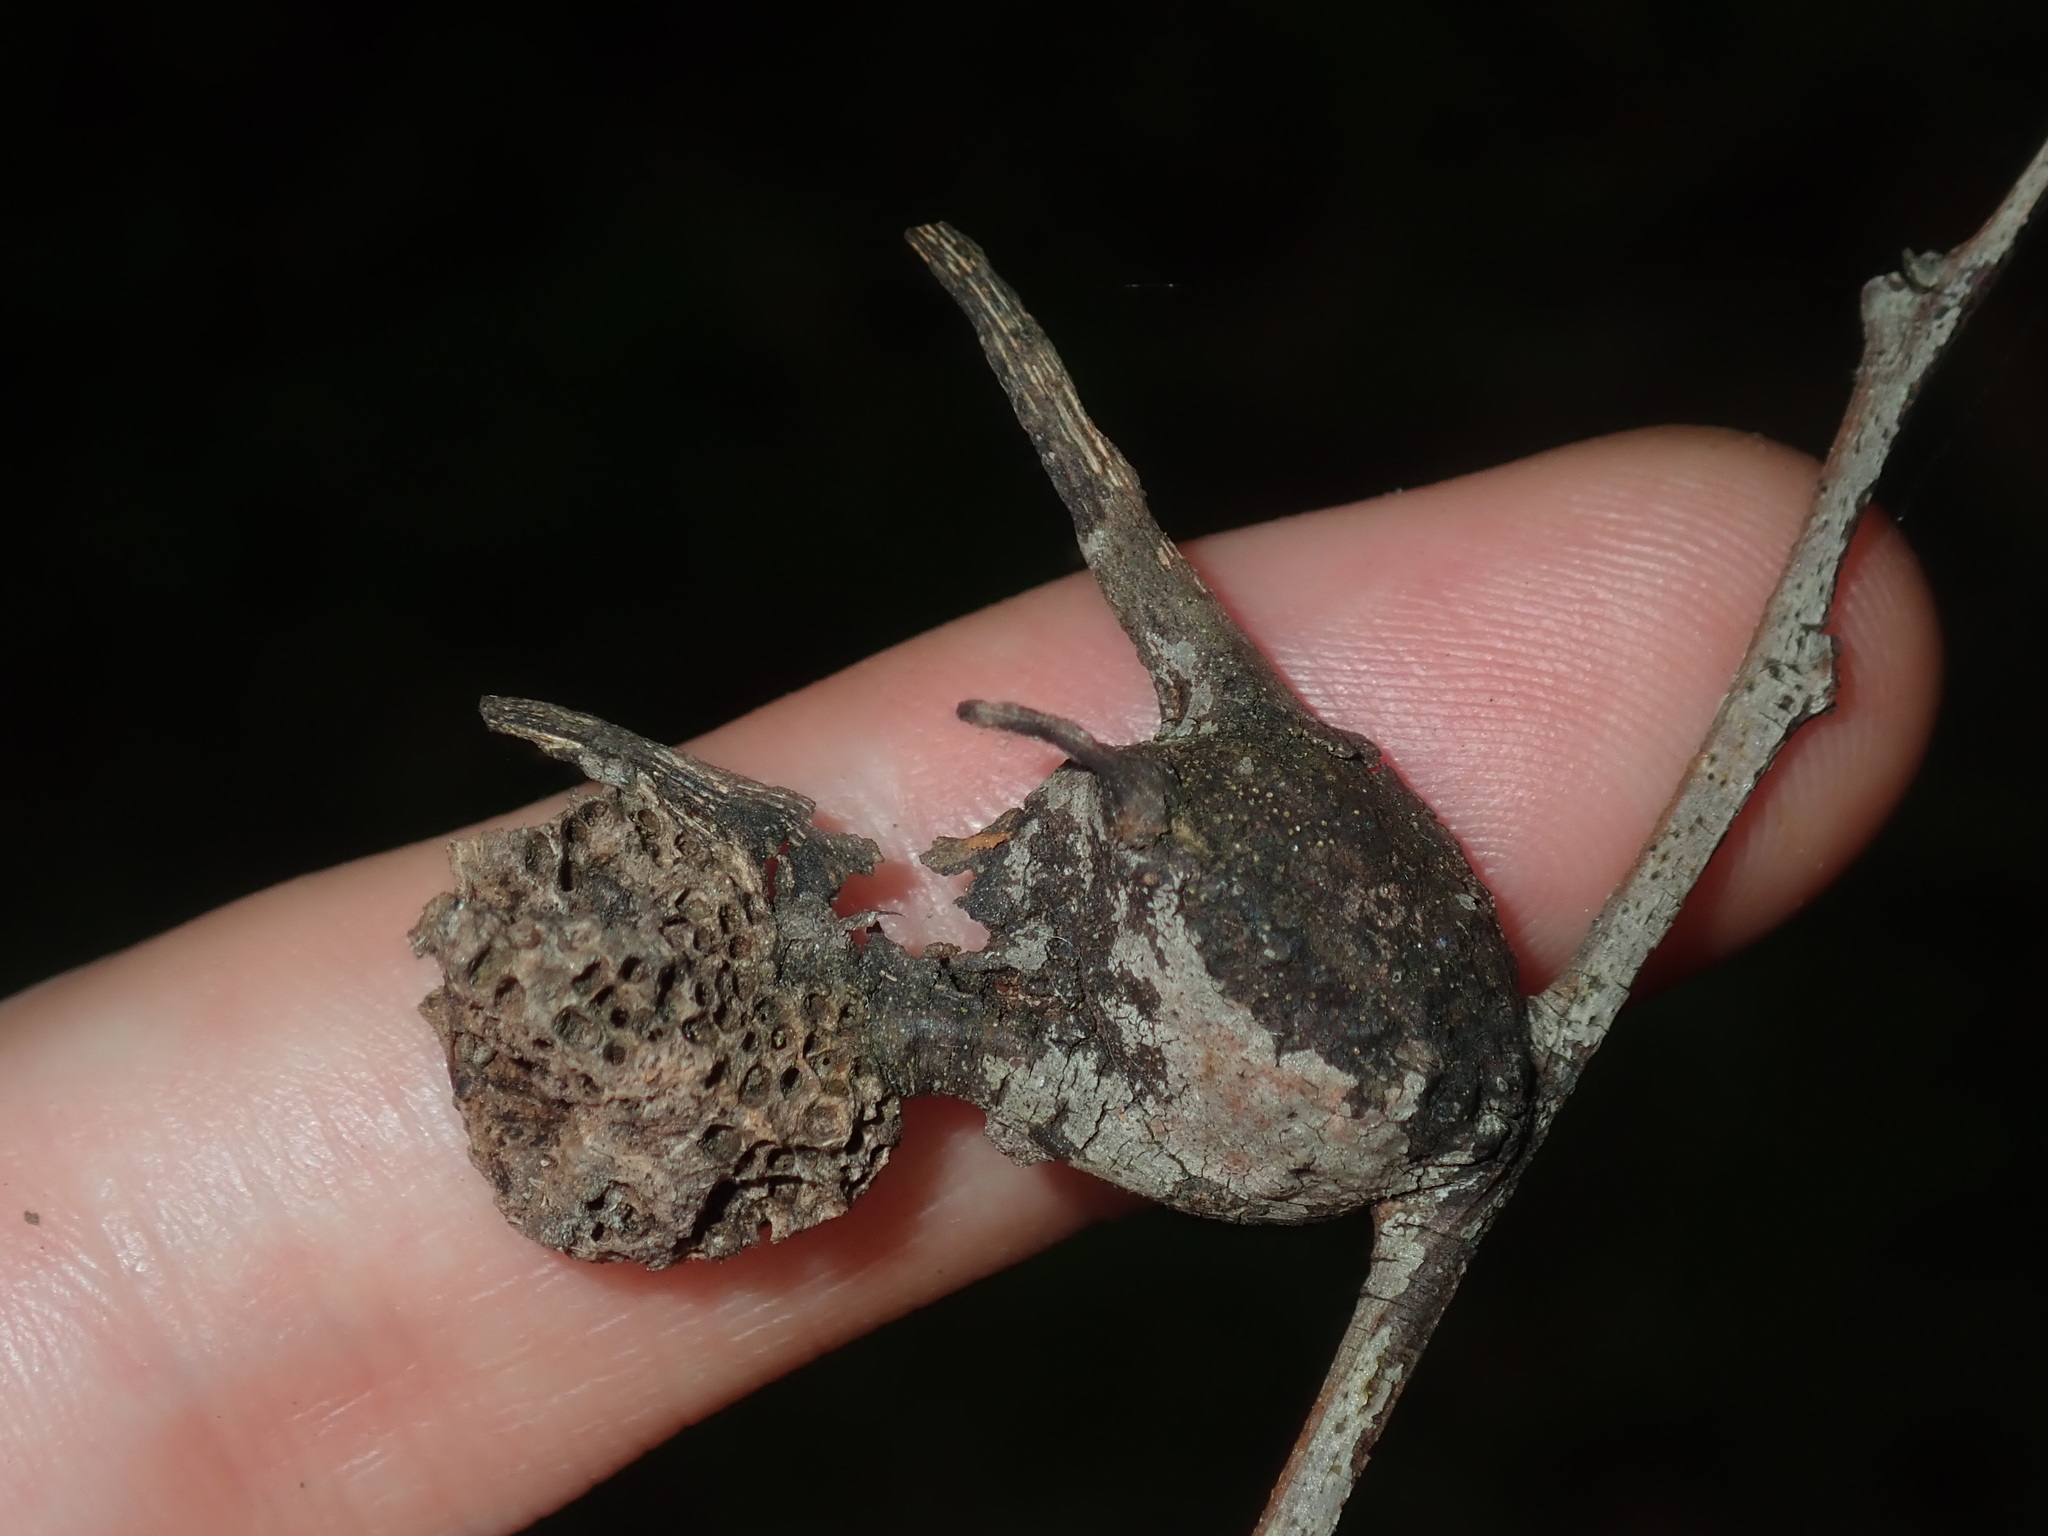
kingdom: Animalia
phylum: Arthropoda
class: Insecta
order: Hemiptera
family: Eriococcidae
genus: Apiomorpha
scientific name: Apiomorpha munita
